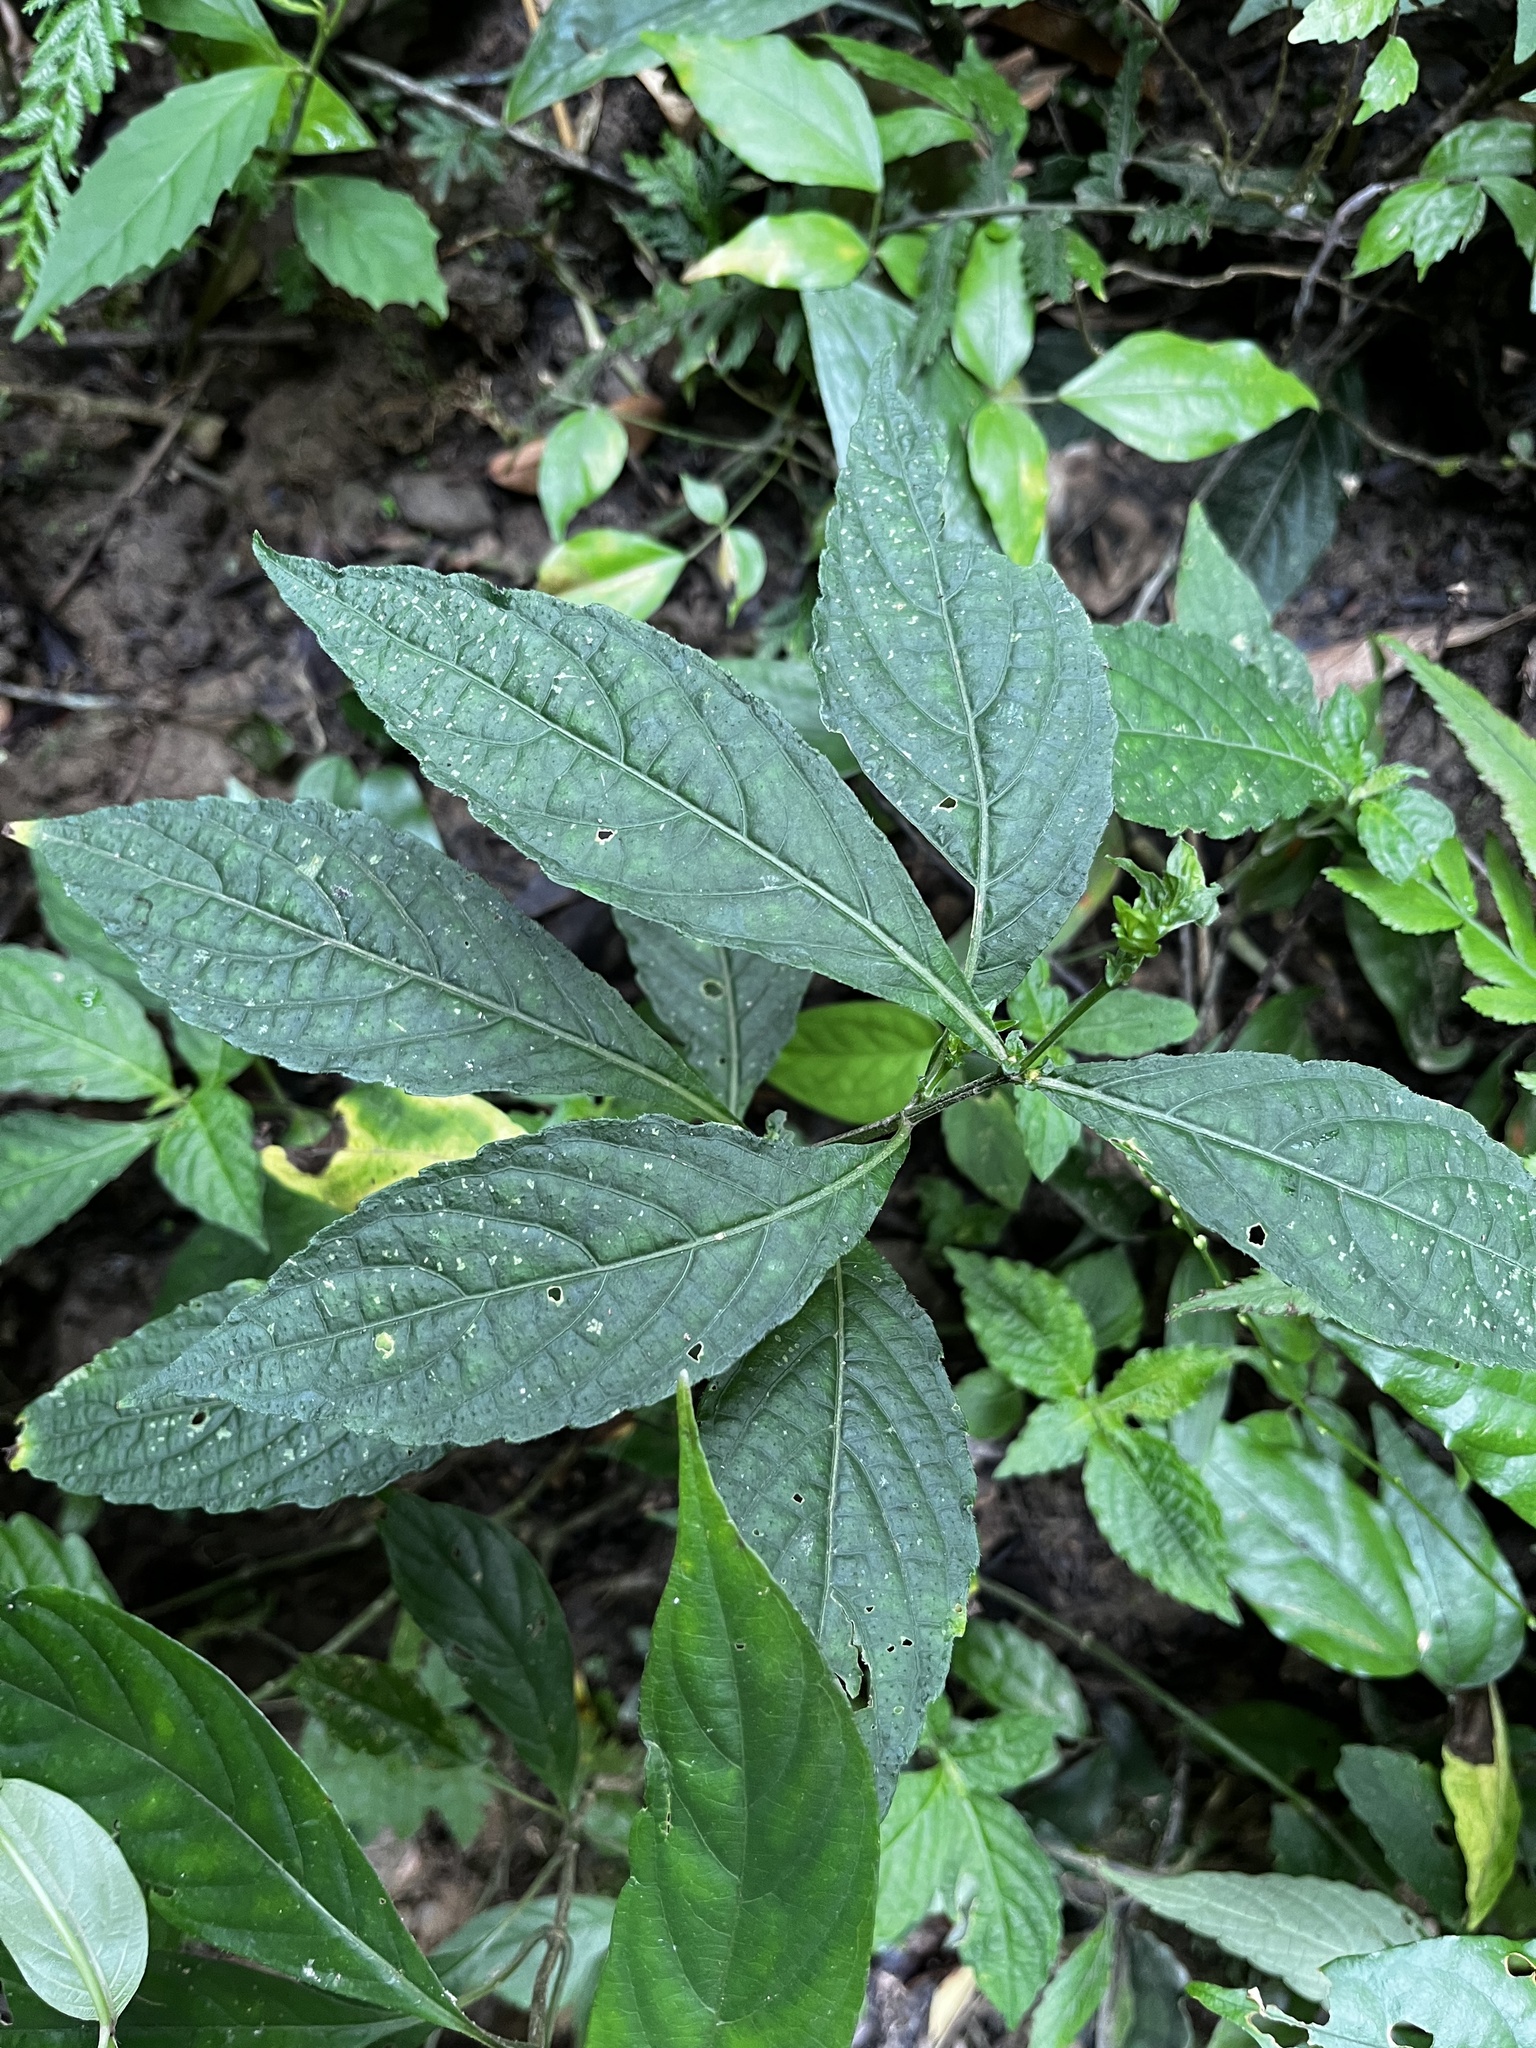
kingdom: Plantae
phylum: Tracheophyta
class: Magnoliopsida
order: Lamiales
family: Acanthaceae
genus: Strobilanthes
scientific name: Strobilanthes formosana
